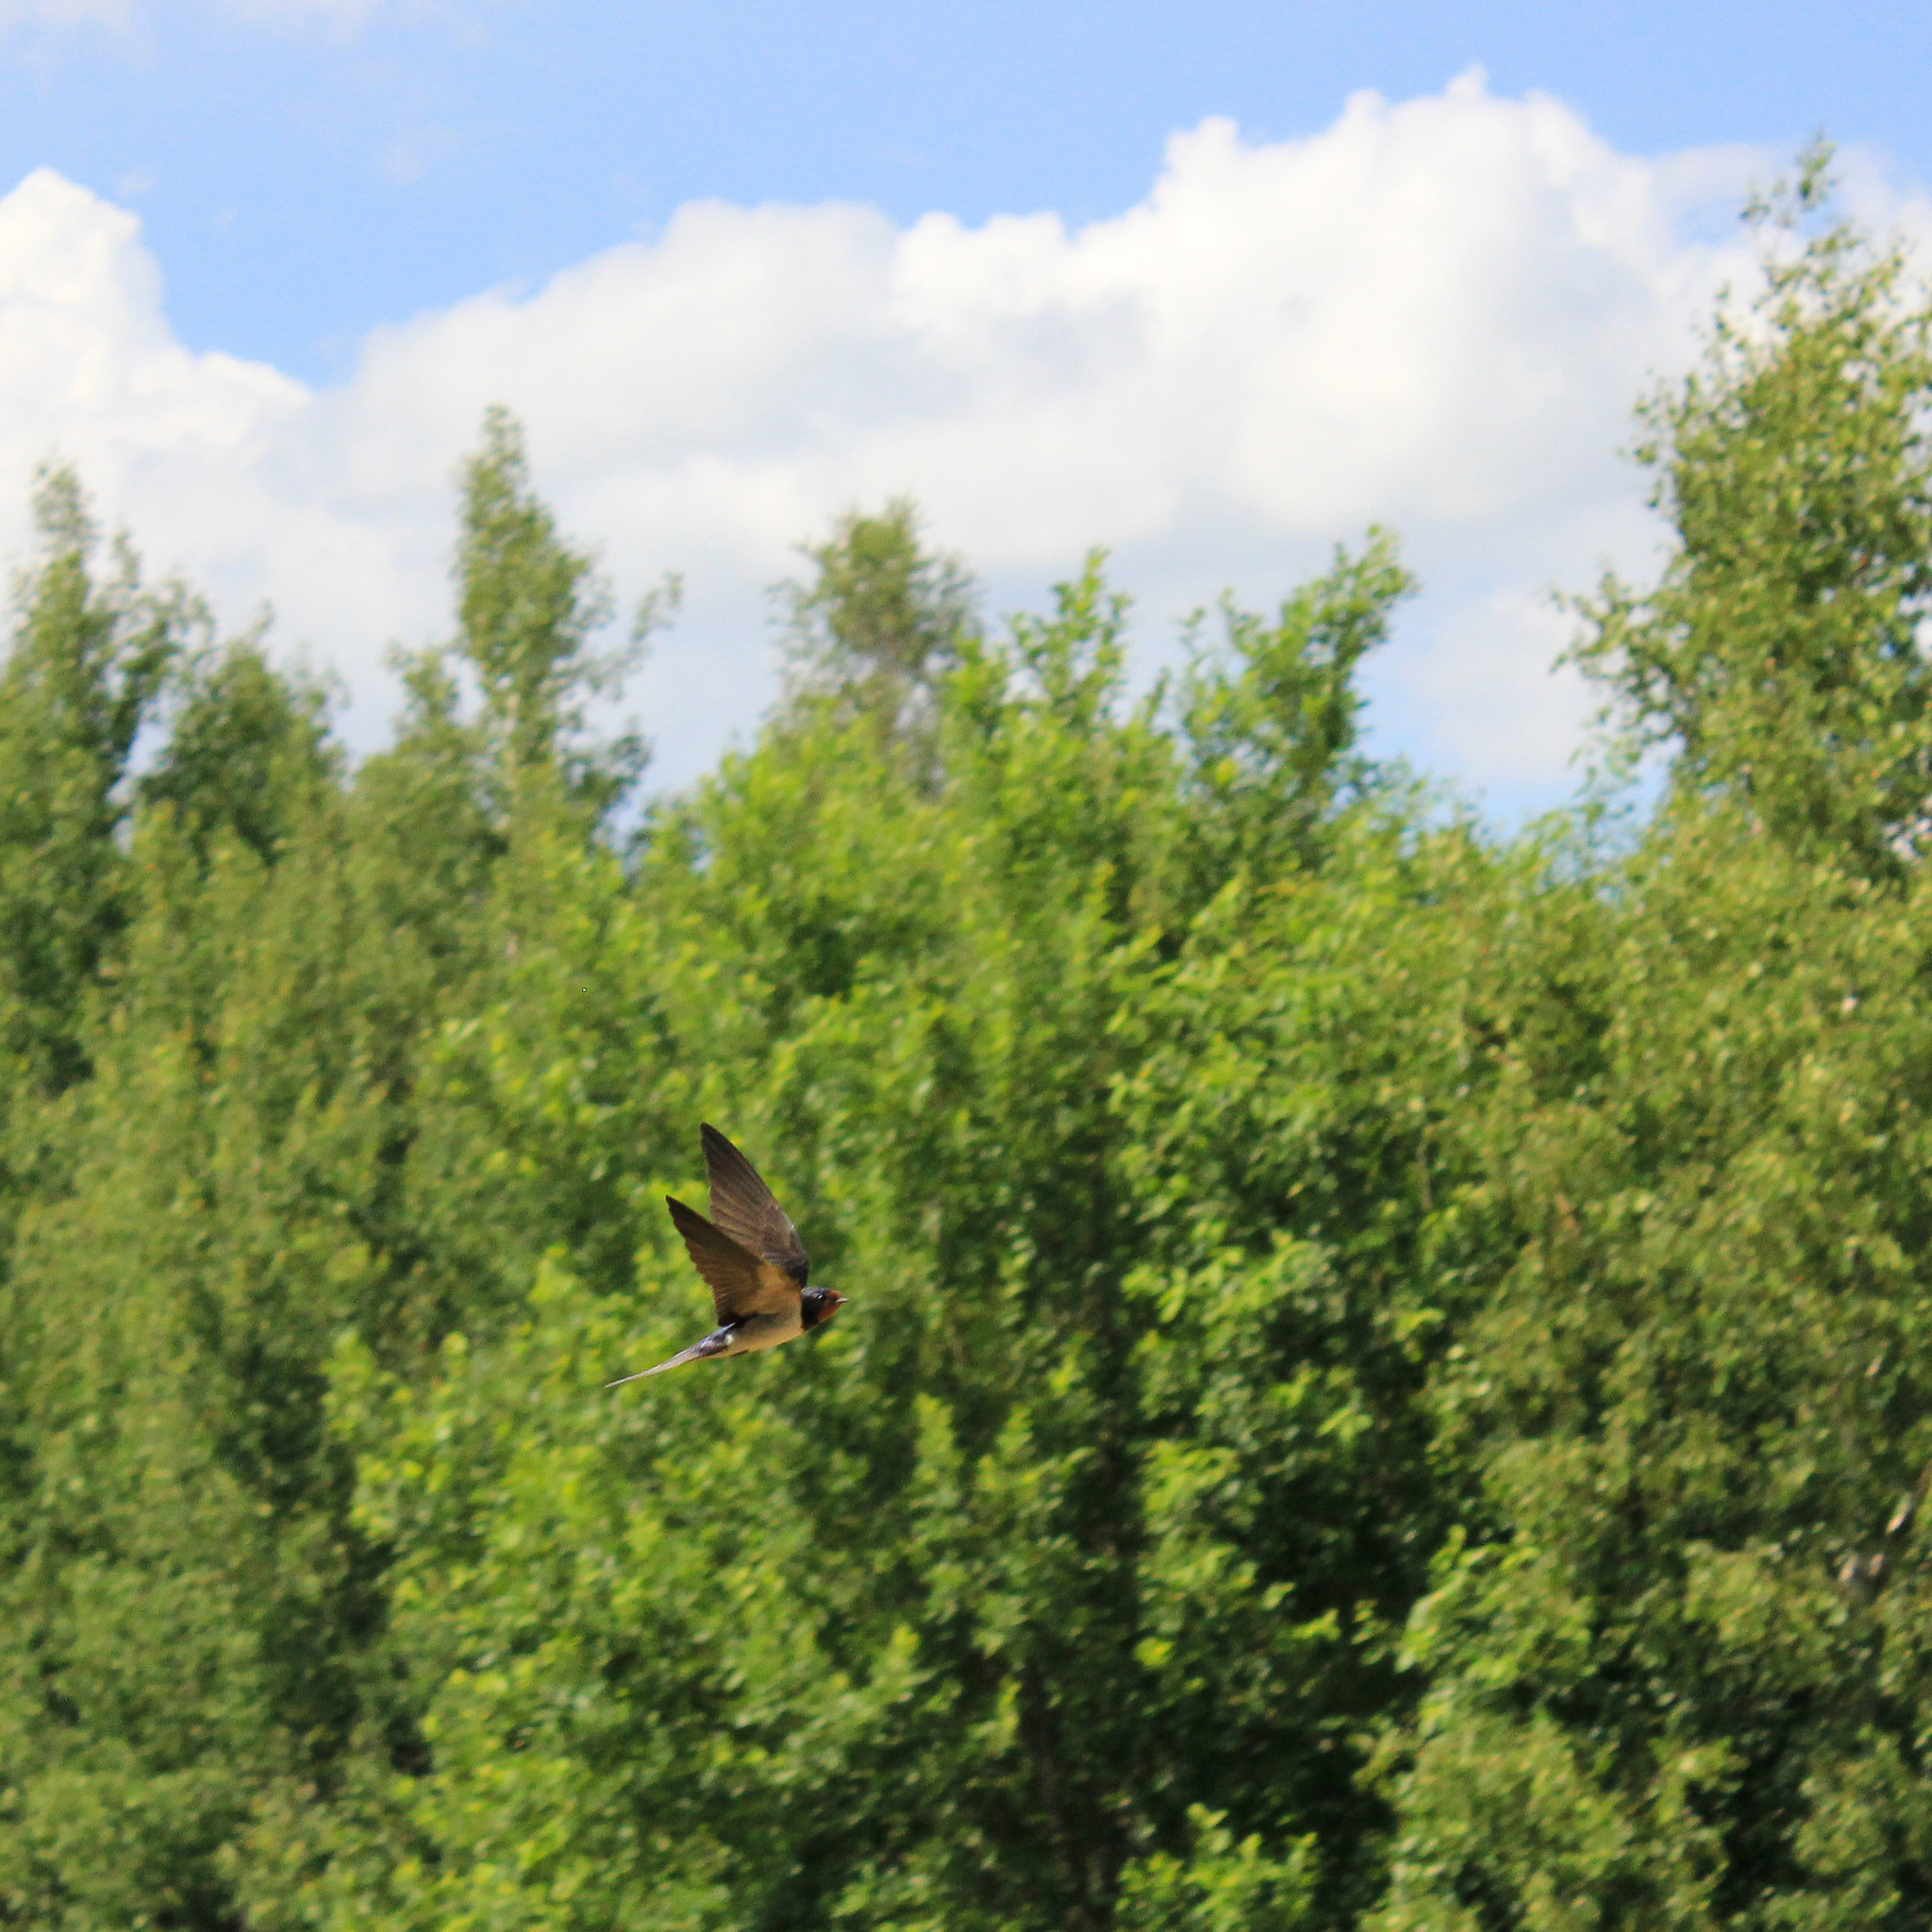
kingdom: Animalia
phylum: Chordata
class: Aves
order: Passeriformes
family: Hirundinidae
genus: Hirundo
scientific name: Hirundo rustica
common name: Barn swallow
